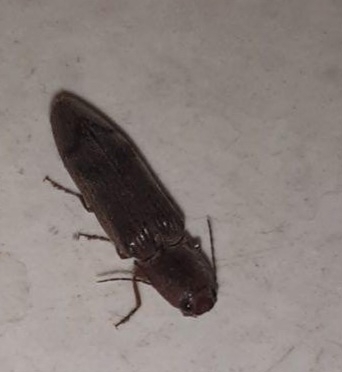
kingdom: Animalia
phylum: Arthropoda
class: Insecta
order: Coleoptera
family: Elateridae
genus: Stenagostus
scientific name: Stenagostus rhombeus
